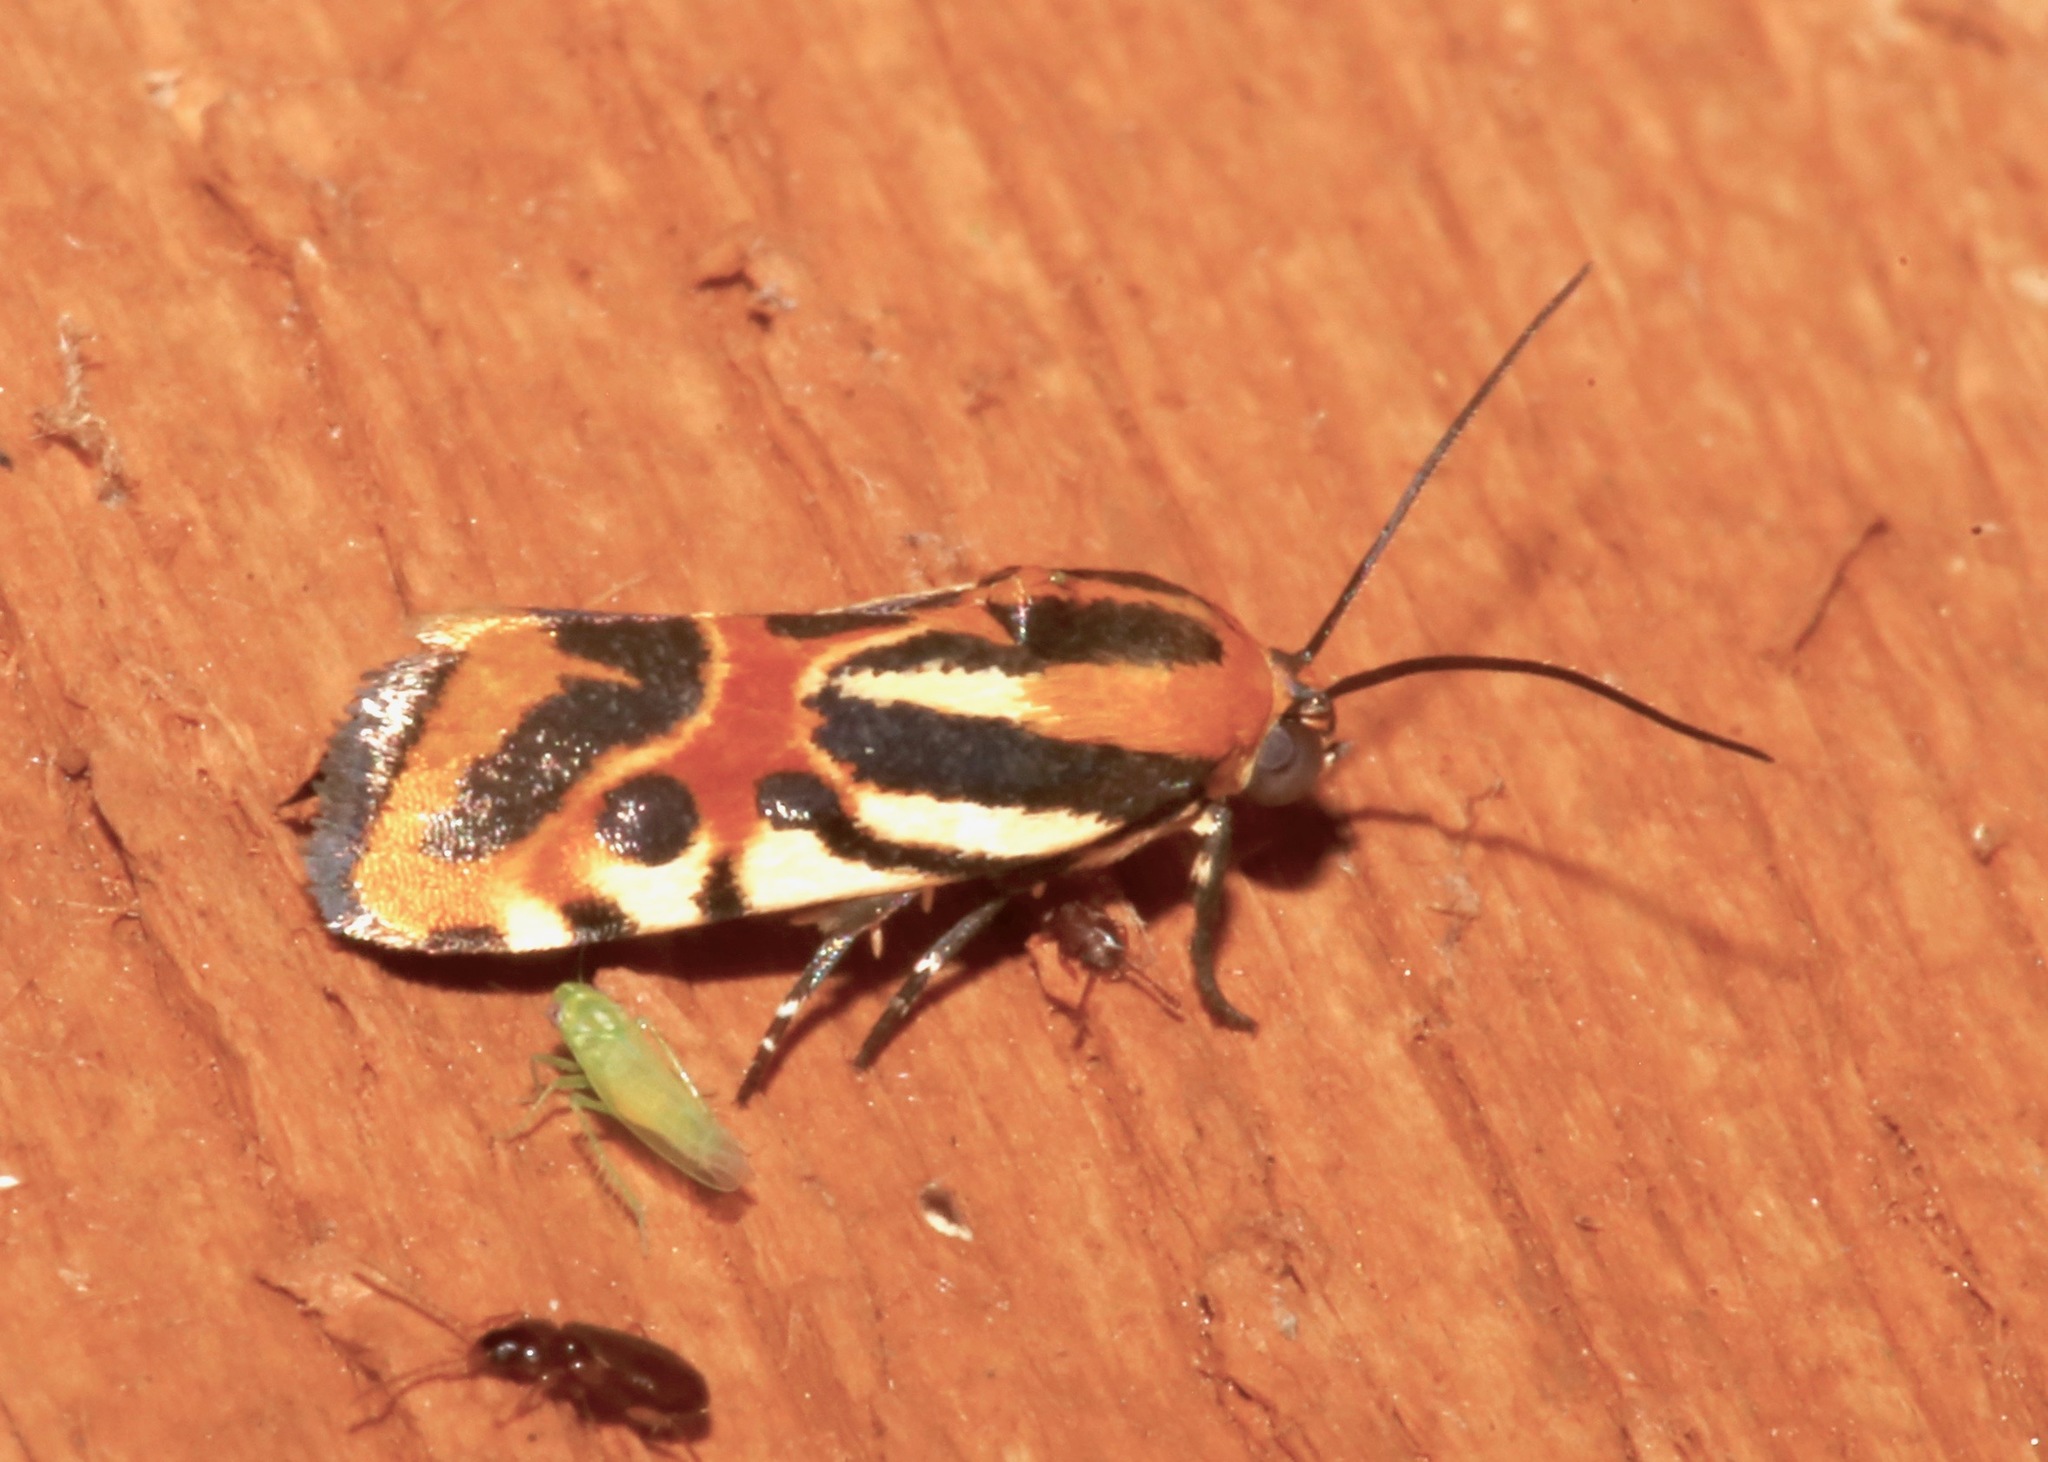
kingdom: Animalia
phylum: Arthropoda
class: Insecta
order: Lepidoptera
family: Noctuidae
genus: Acontia
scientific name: Acontia onagrus
